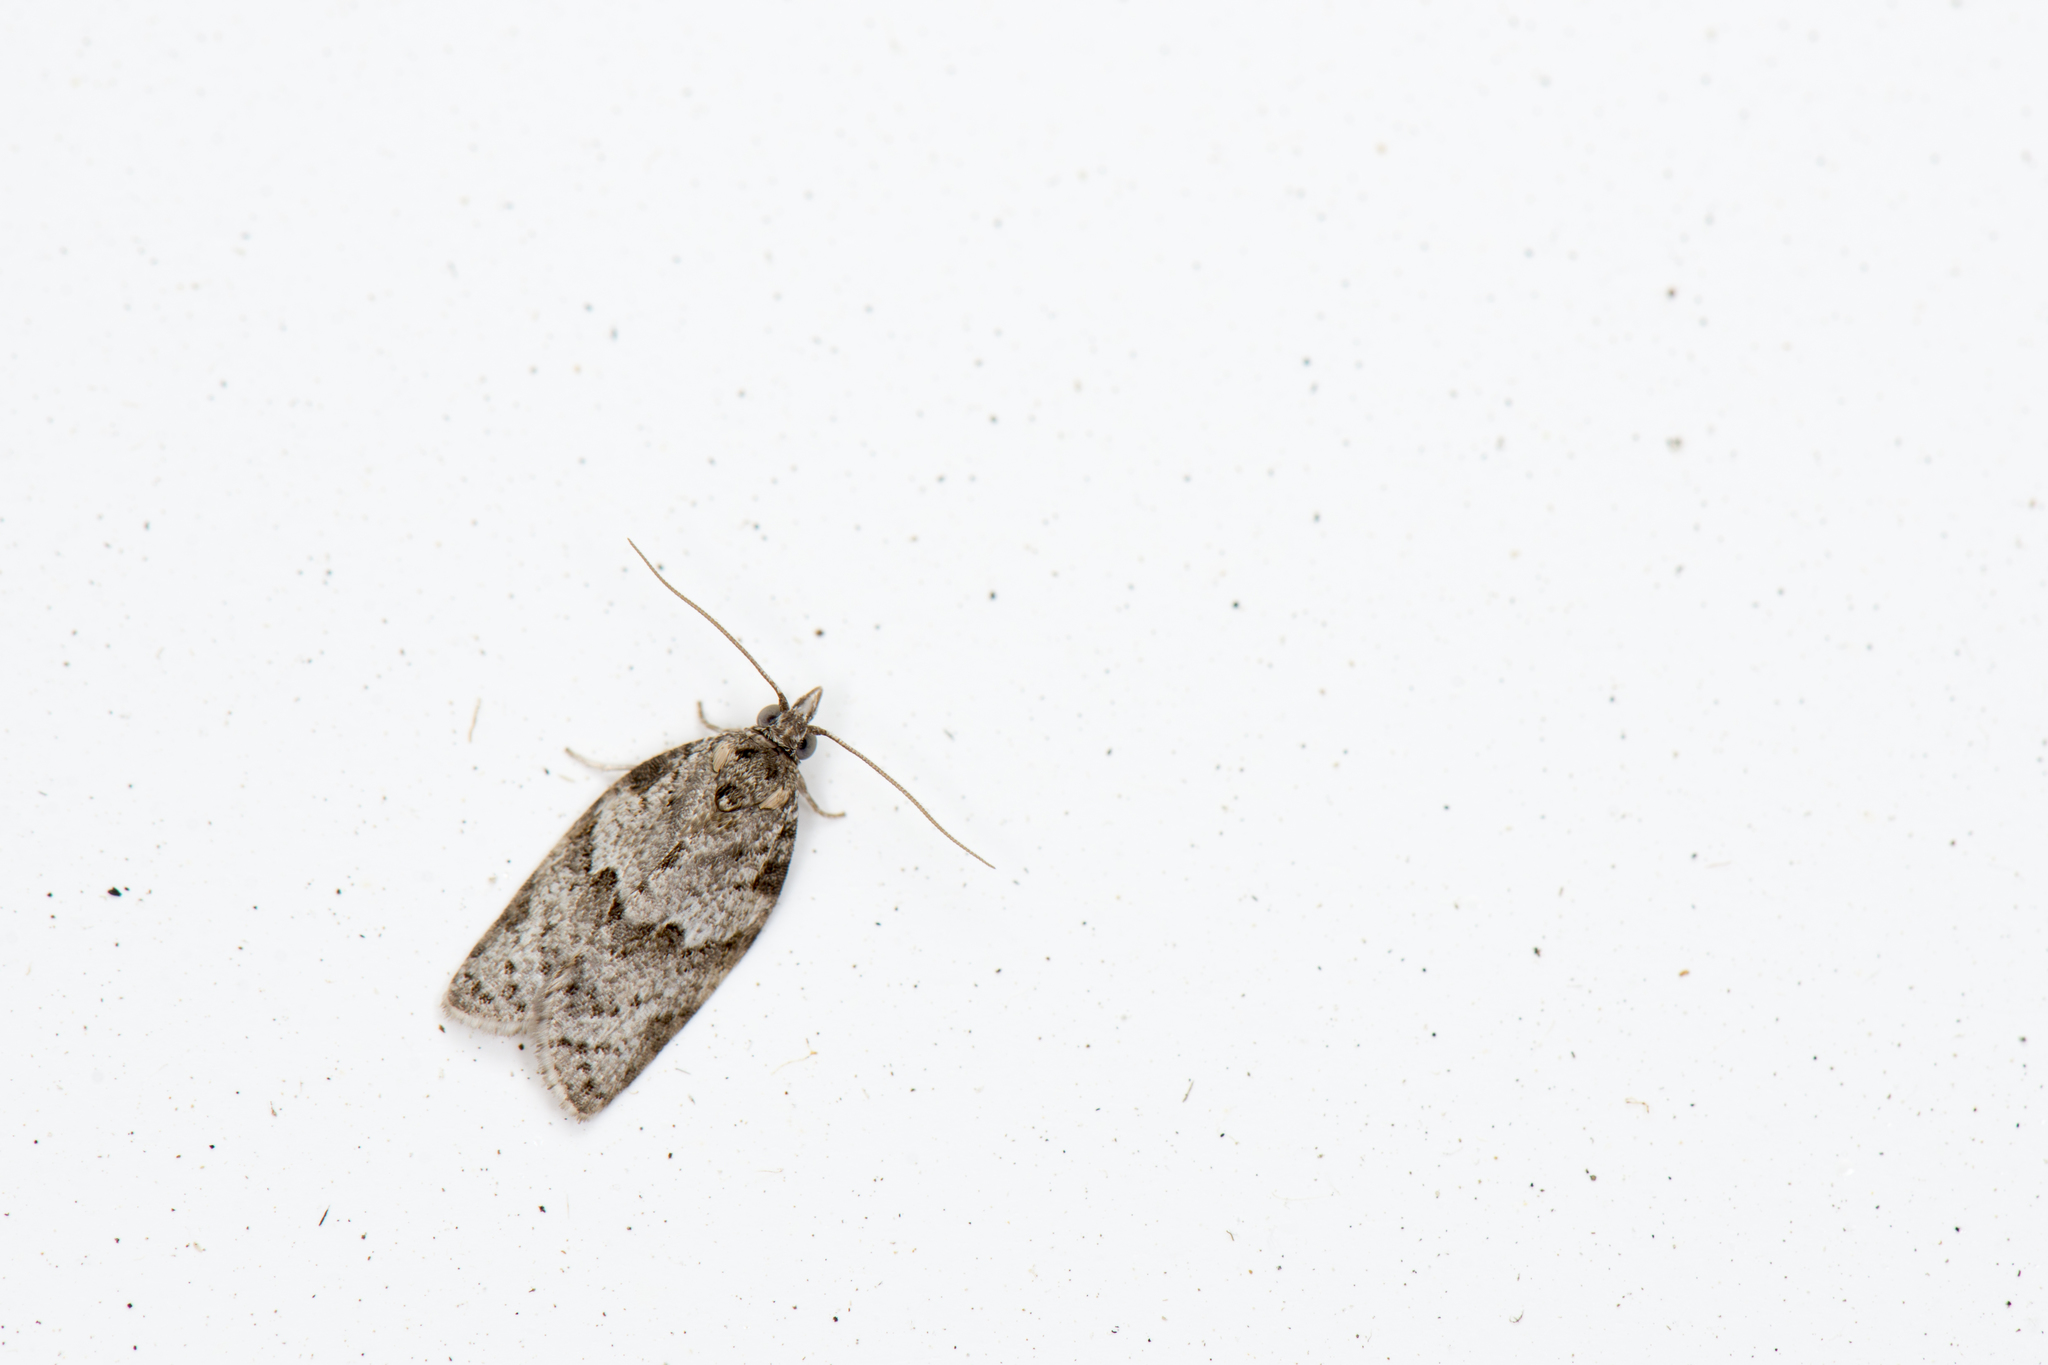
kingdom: Animalia
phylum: Arthropoda
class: Insecta
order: Lepidoptera
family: Tortricidae
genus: Isotenes
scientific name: Isotenes miserana
